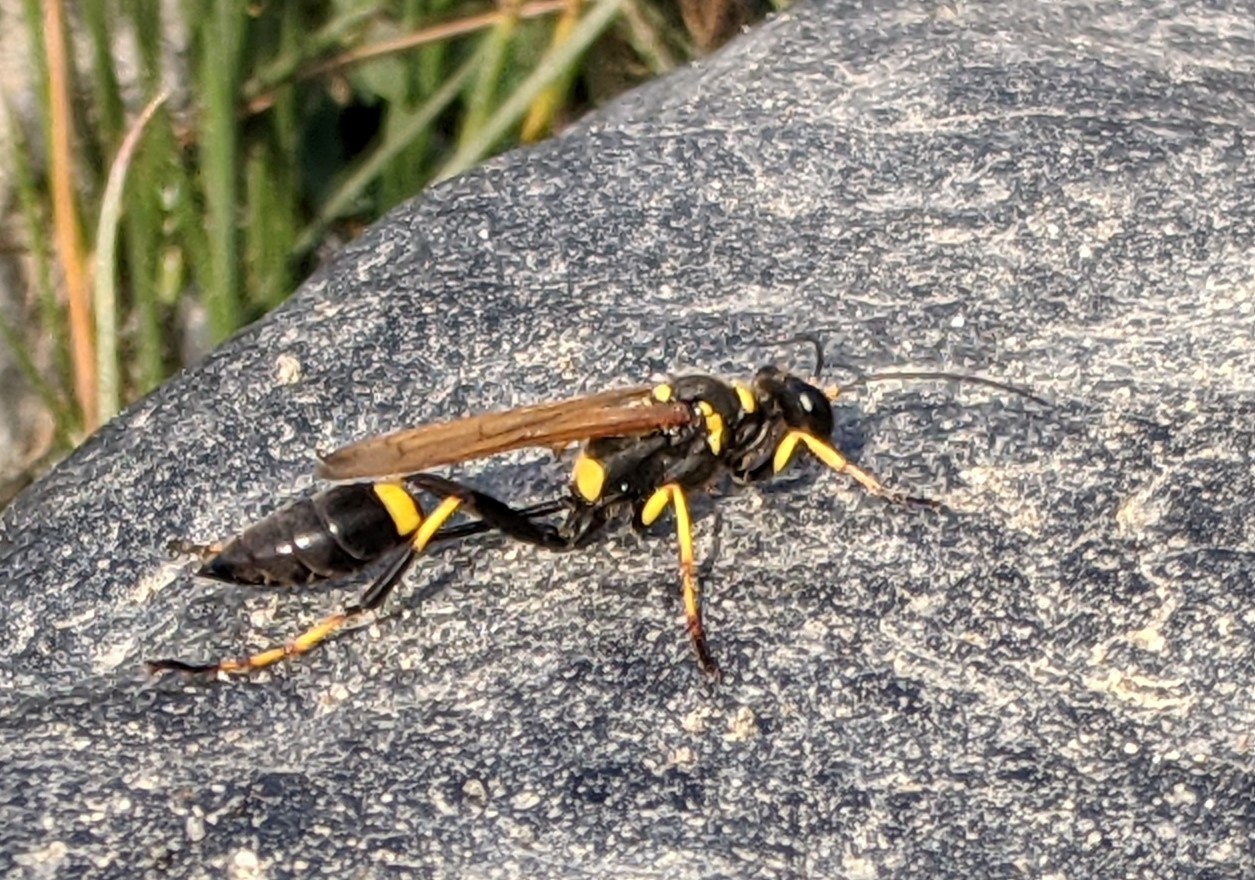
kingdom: Animalia
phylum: Arthropoda
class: Insecta
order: Hymenoptera
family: Sphecidae
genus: Sceliphron
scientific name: Sceliphron caementarium
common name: Mud dauber
